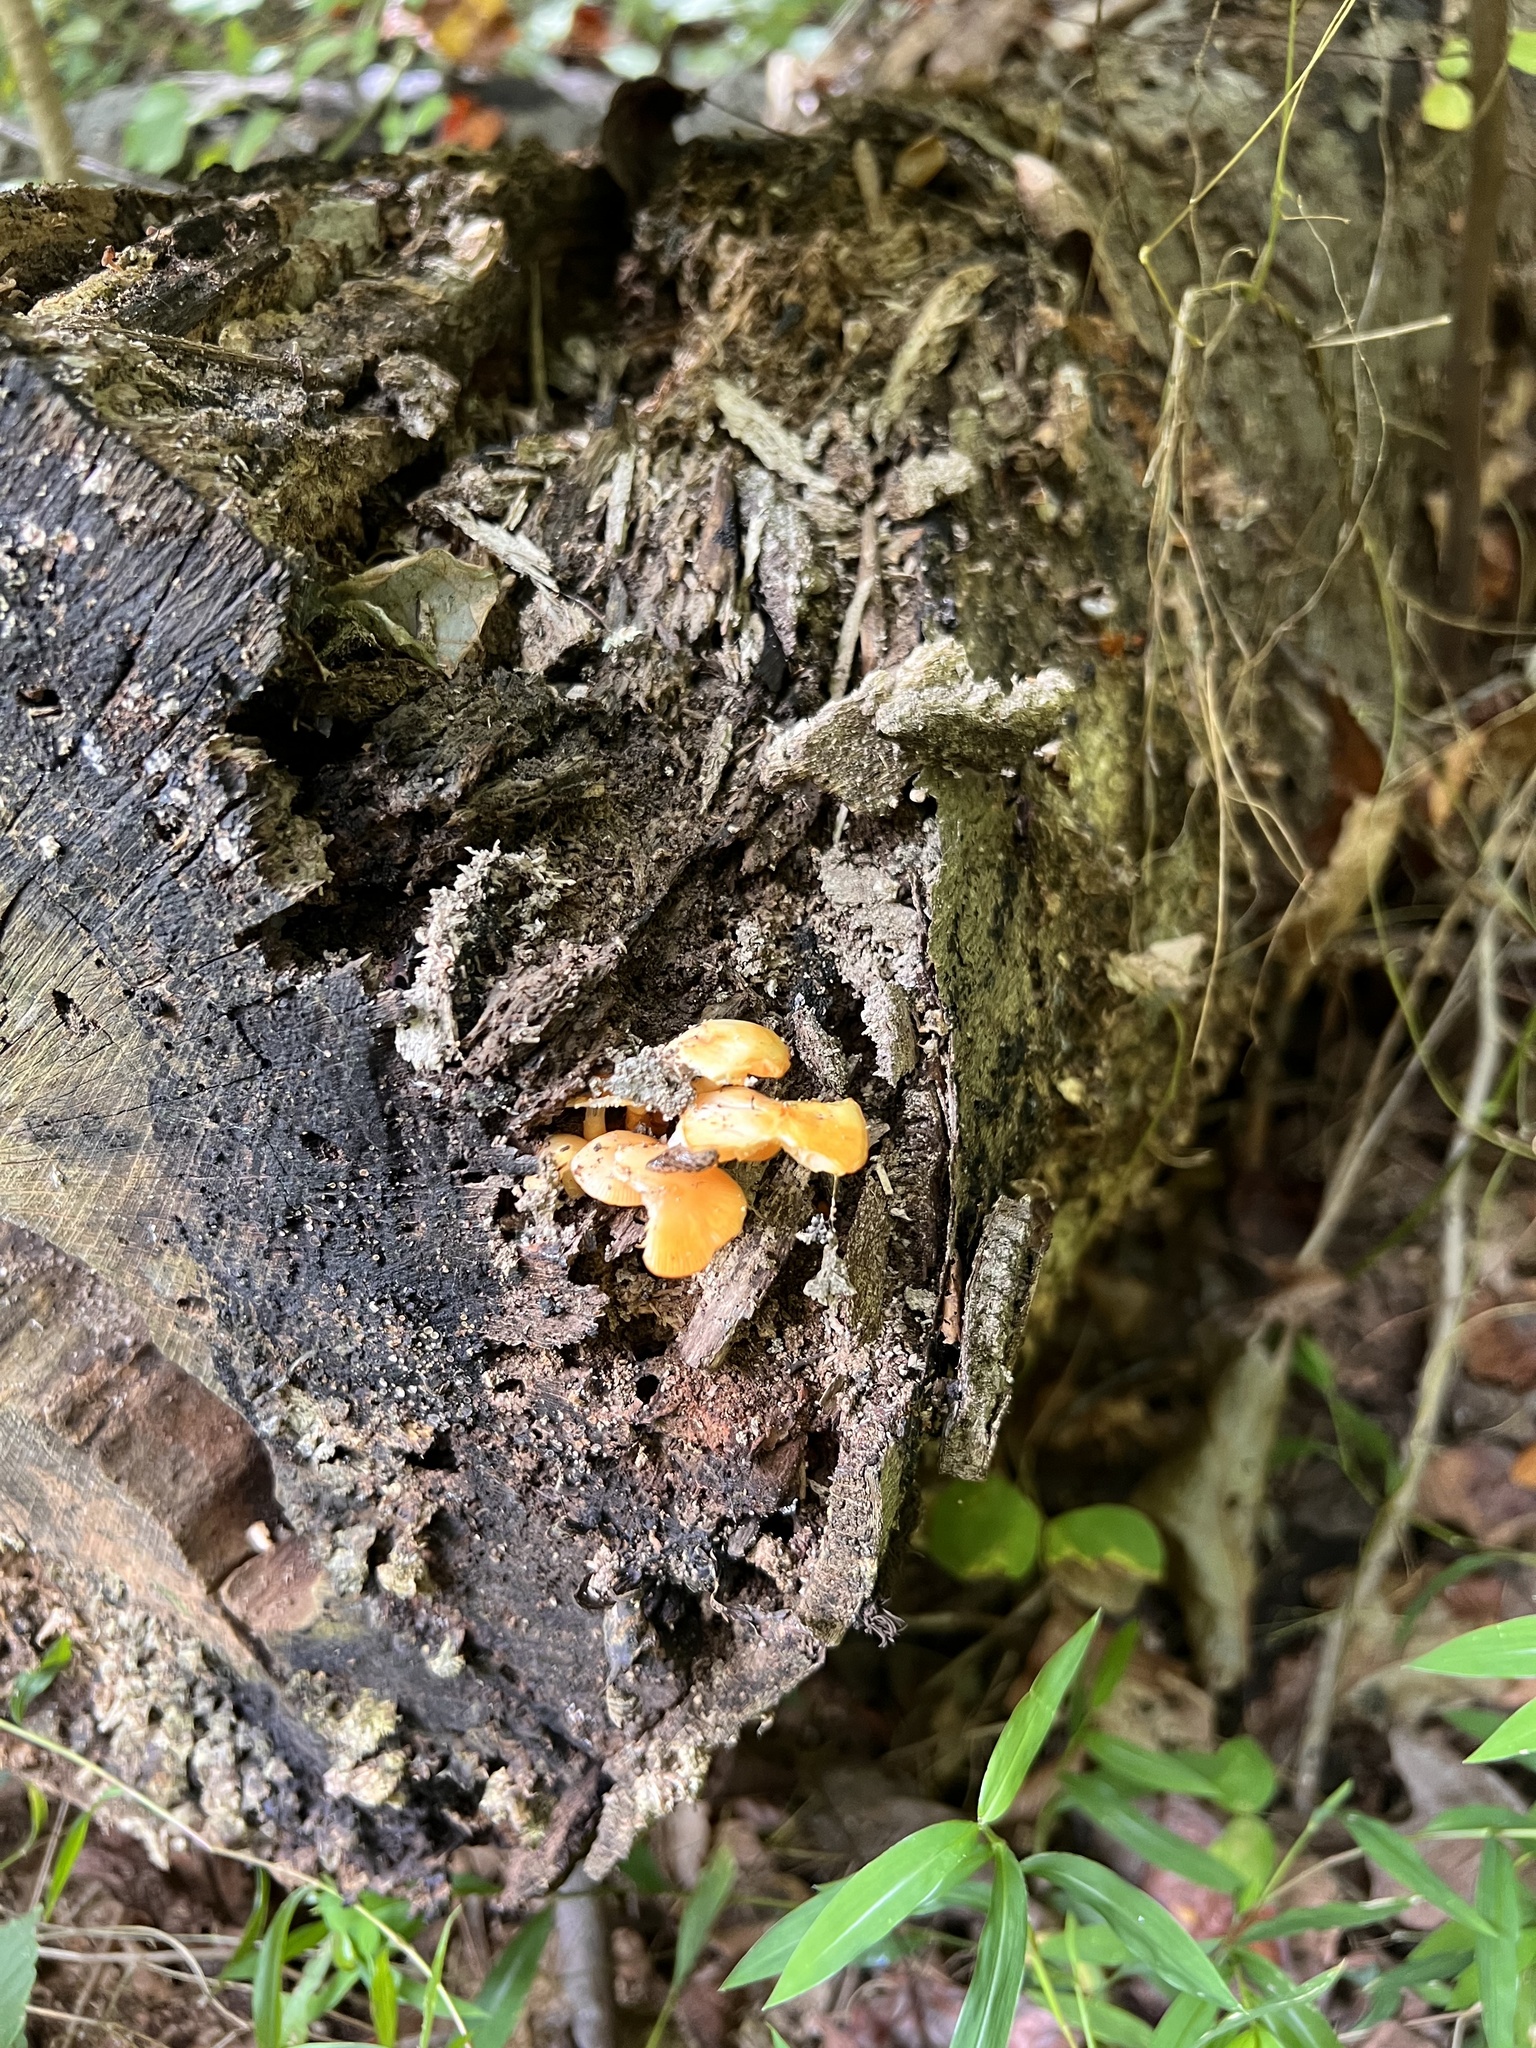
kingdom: Fungi
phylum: Basidiomycota
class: Agaricomycetes
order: Agaricales
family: Mycenaceae
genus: Mycena
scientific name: Mycena leaiana
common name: Orange mycena
